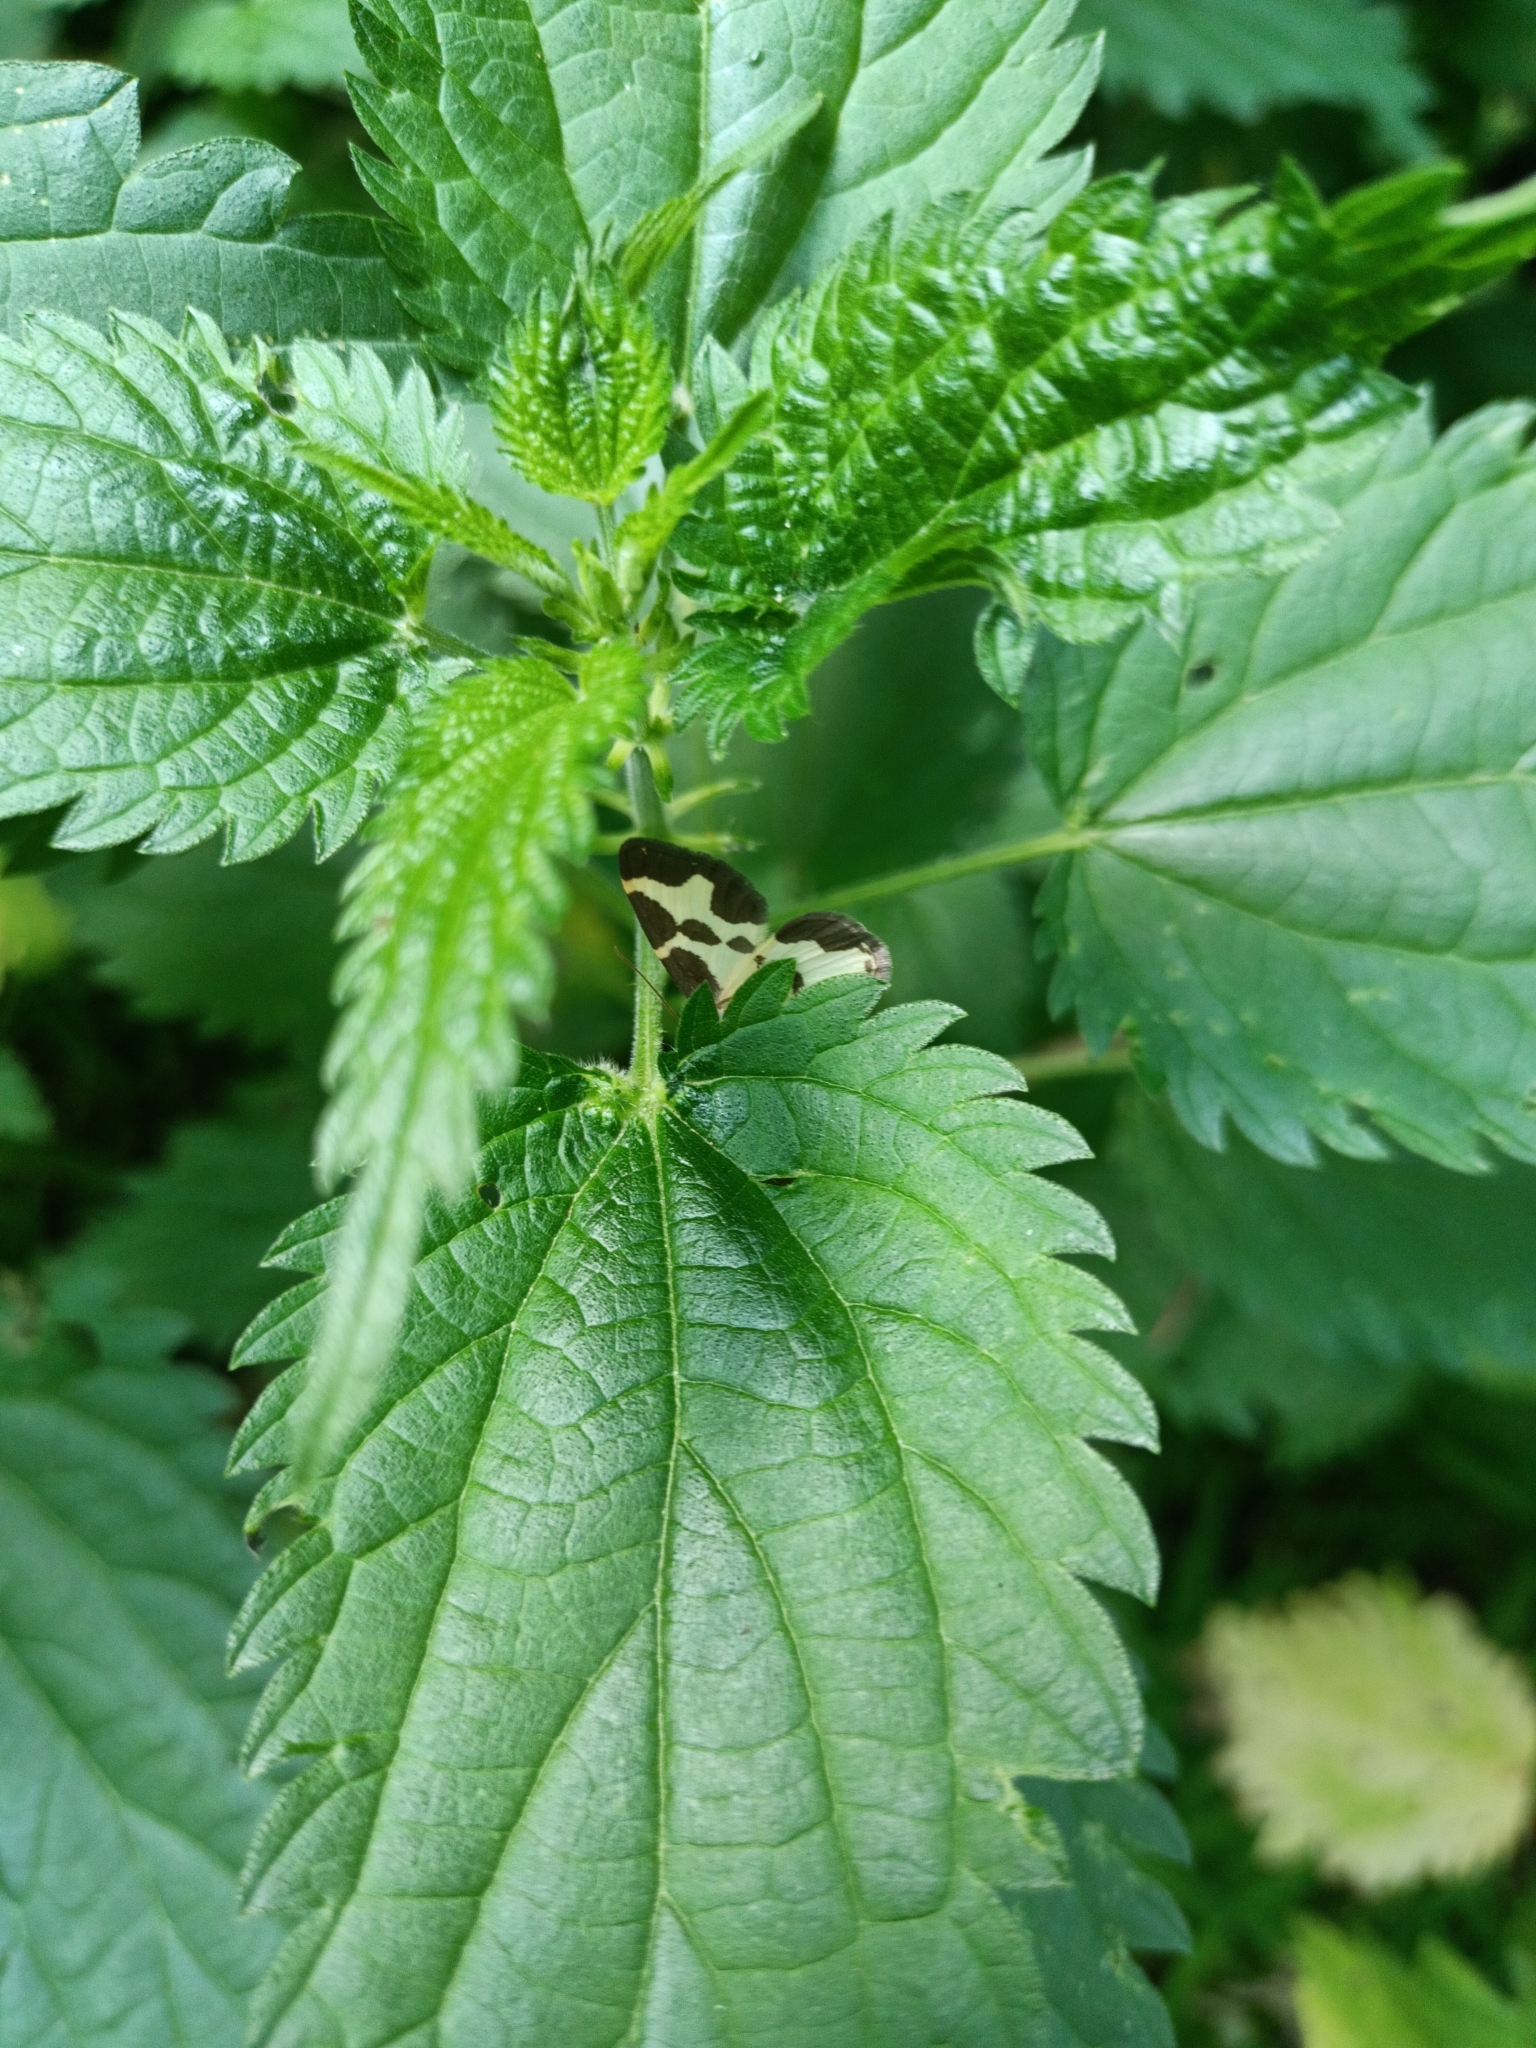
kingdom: Animalia
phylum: Arthropoda
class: Insecta
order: Lepidoptera
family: Geometridae
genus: Lomaspilis
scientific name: Lomaspilis marginata
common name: Clouded border
